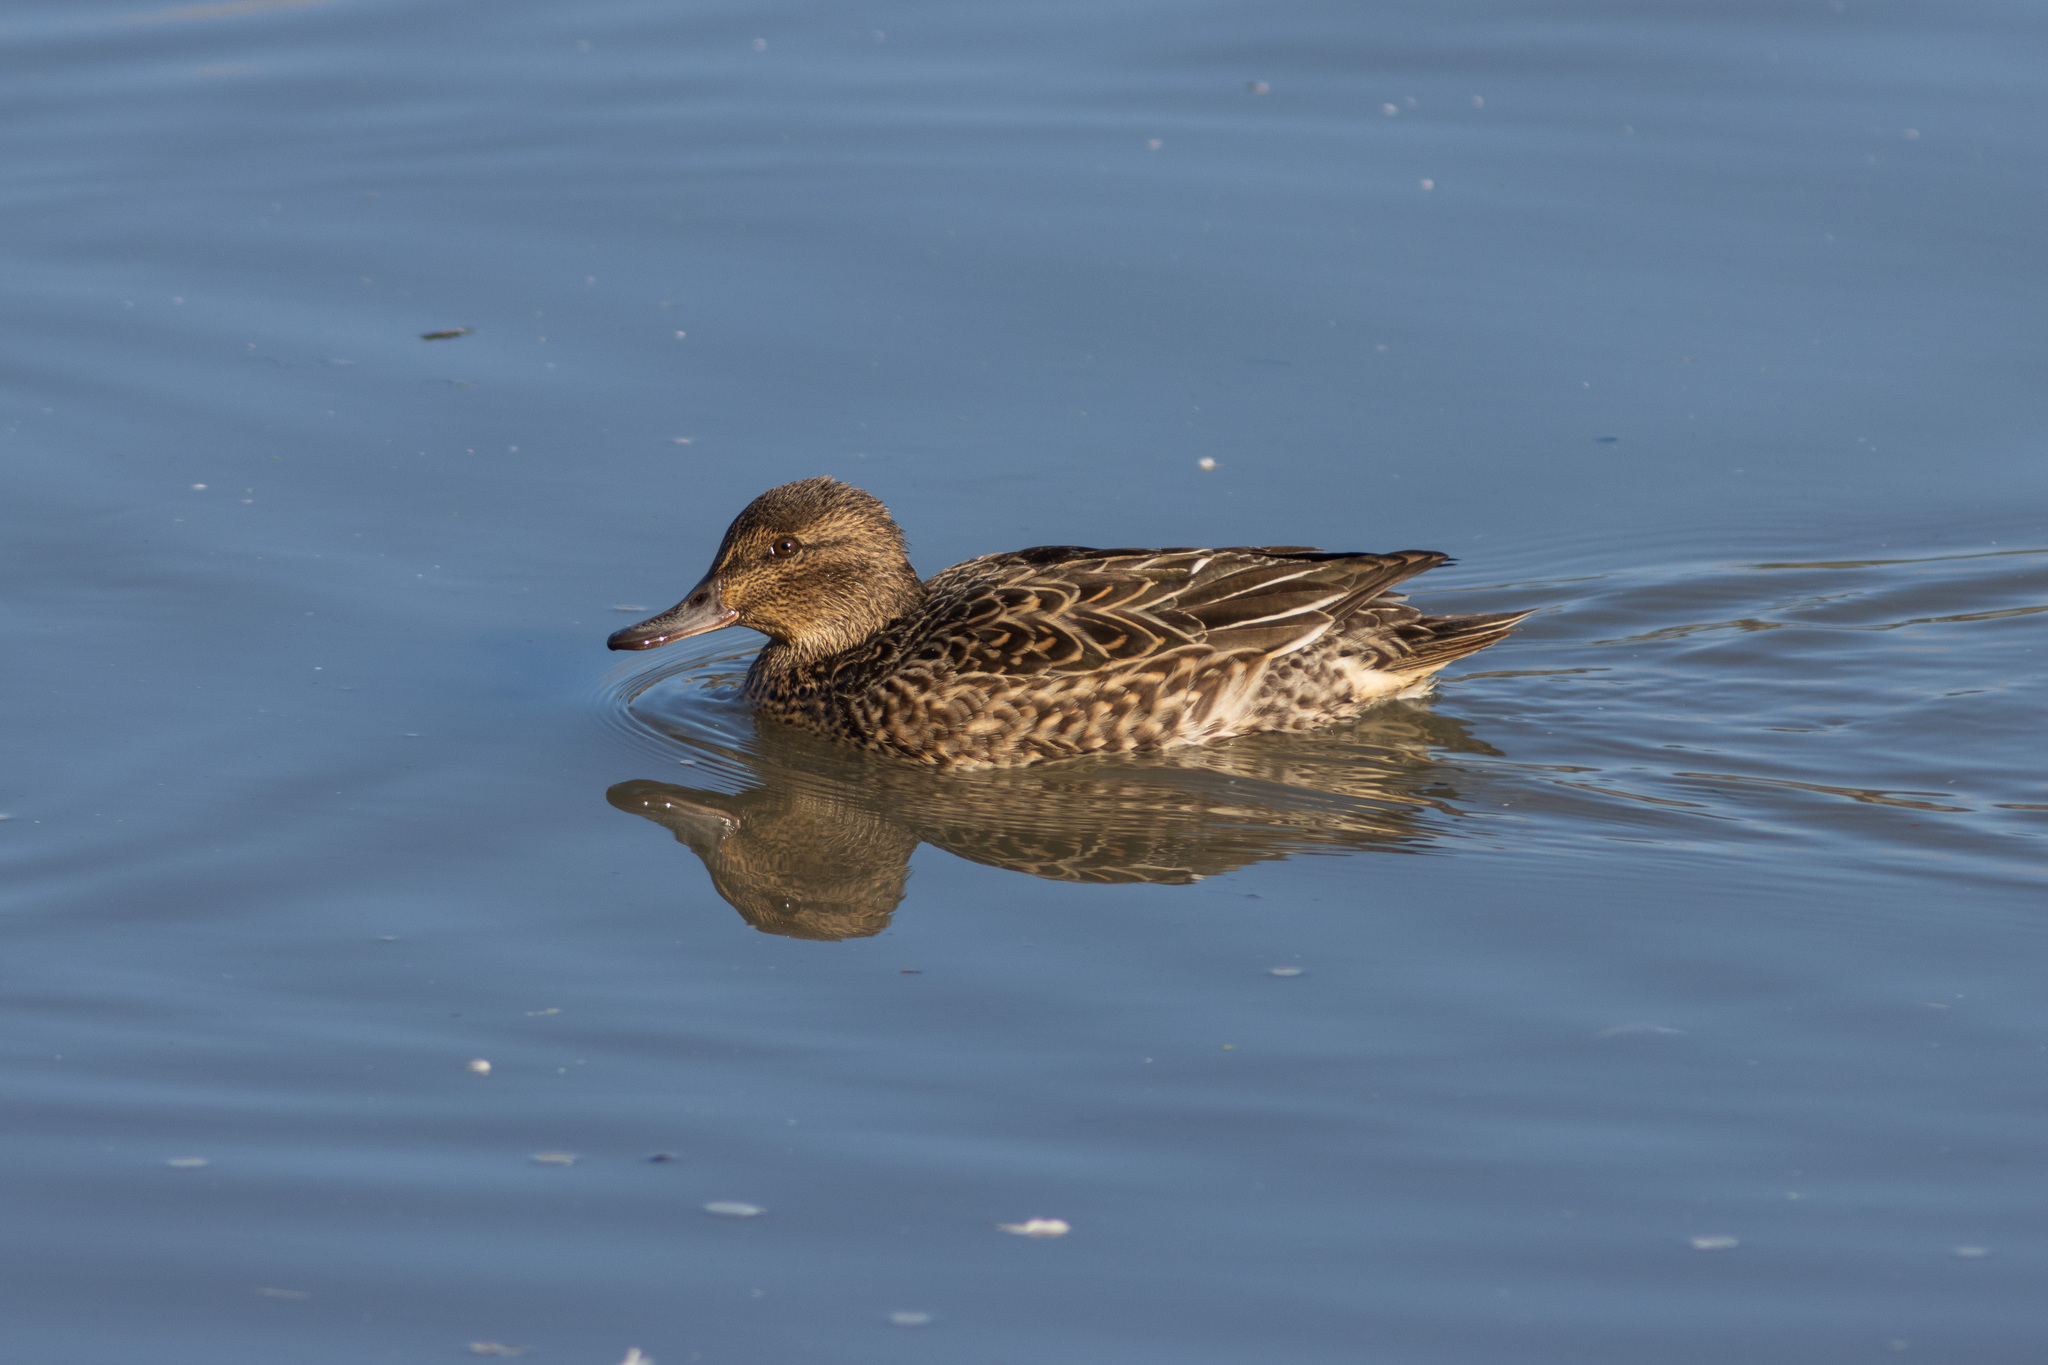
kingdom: Animalia
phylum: Chordata
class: Aves
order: Anseriformes
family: Anatidae
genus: Anas
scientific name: Anas crecca
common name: Eurasian teal
